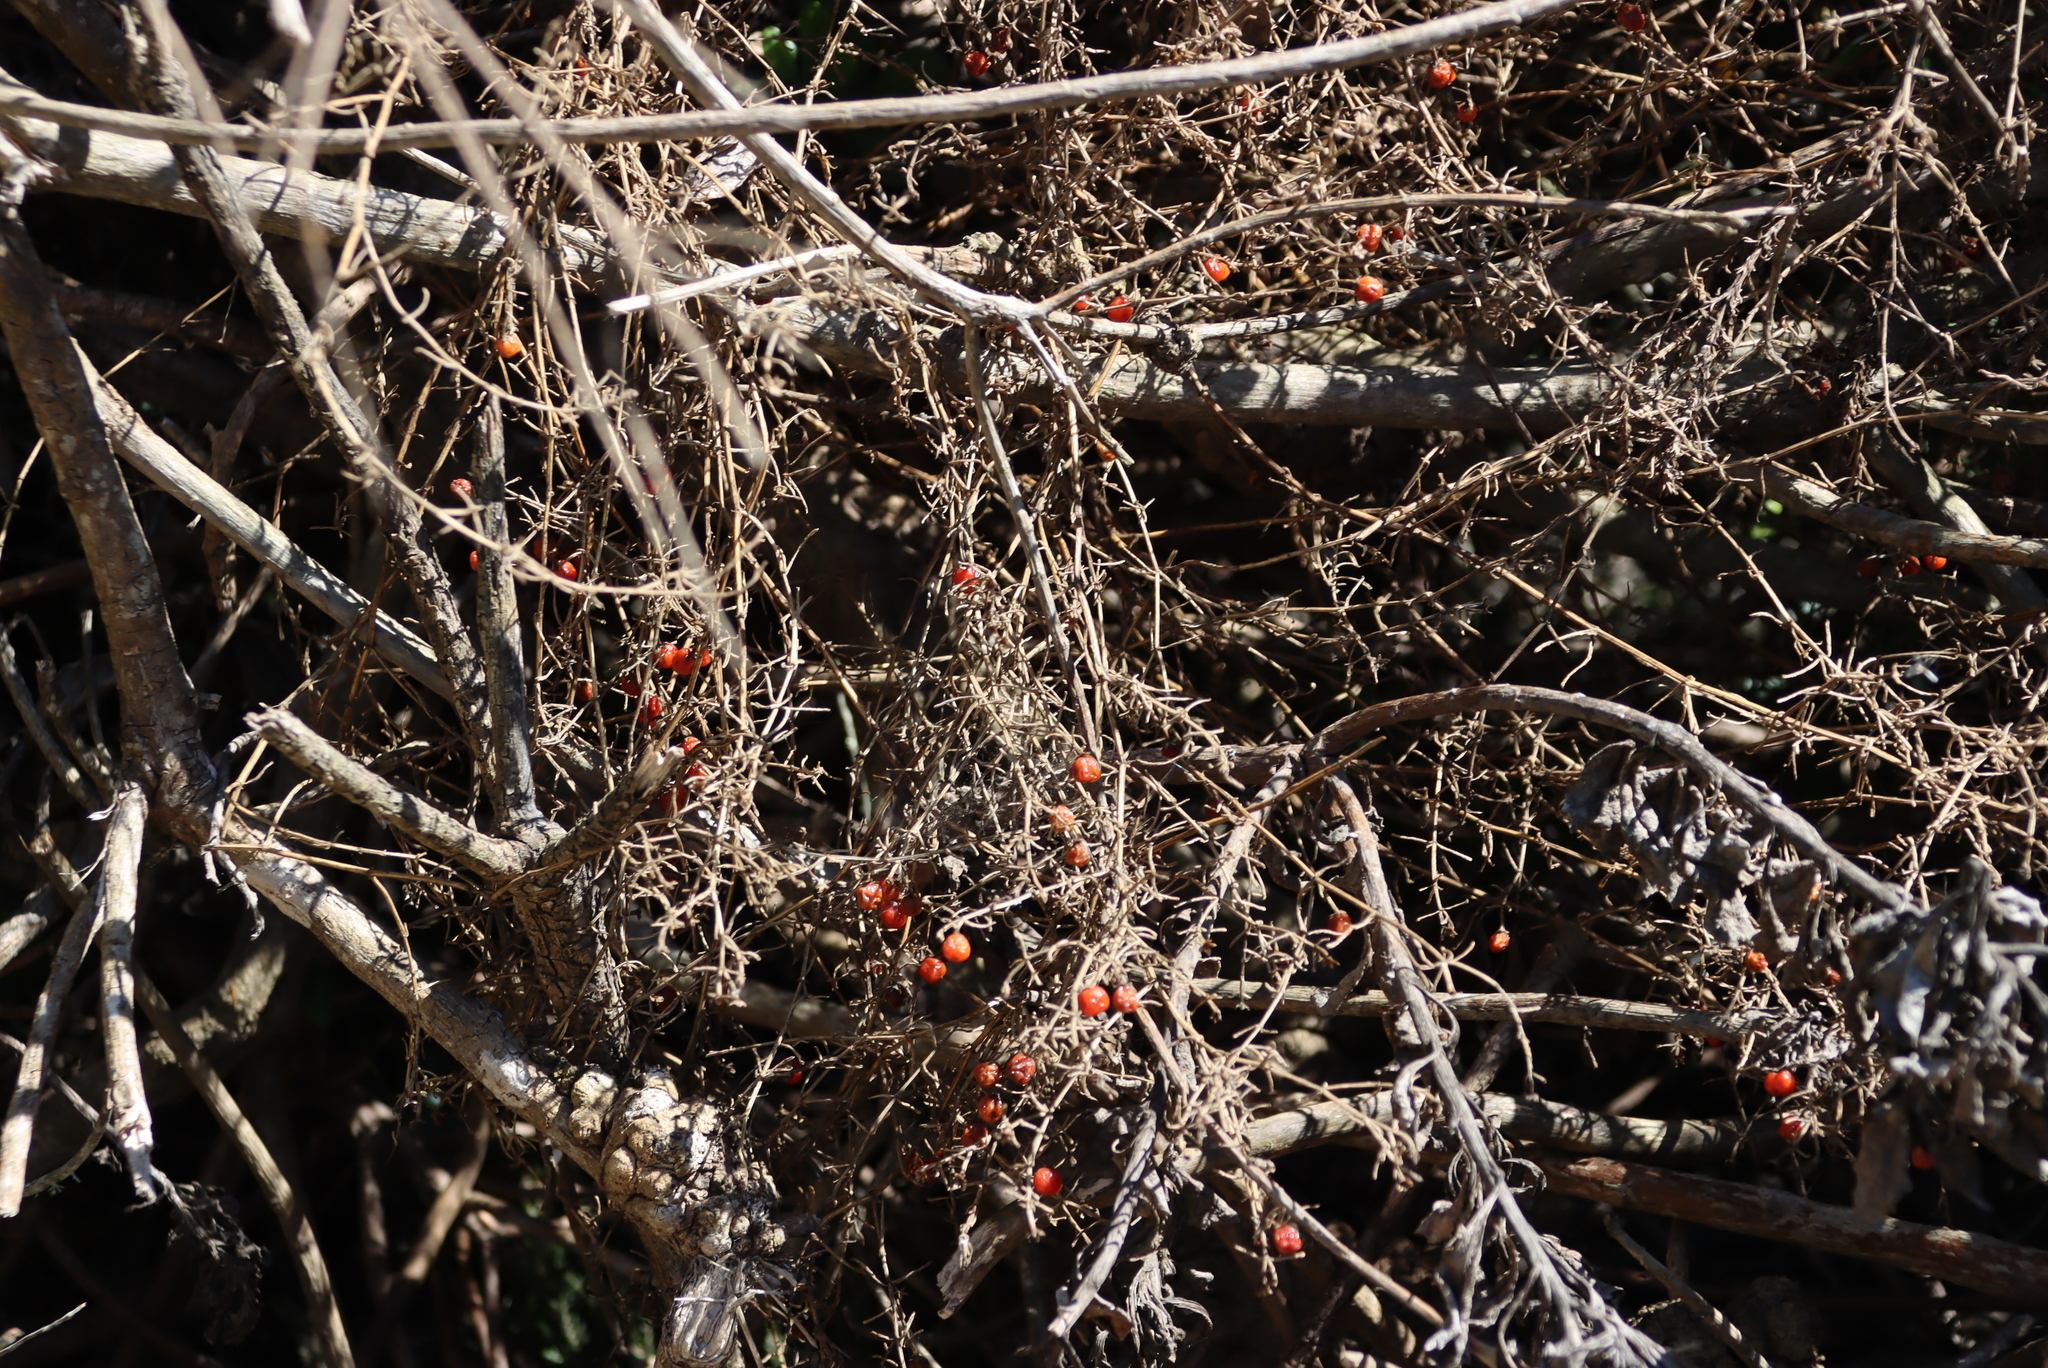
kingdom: Plantae
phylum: Tracheophyta
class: Magnoliopsida
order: Gentianales
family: Gentianaceae
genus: Chironia
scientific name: Chironia baccifera
